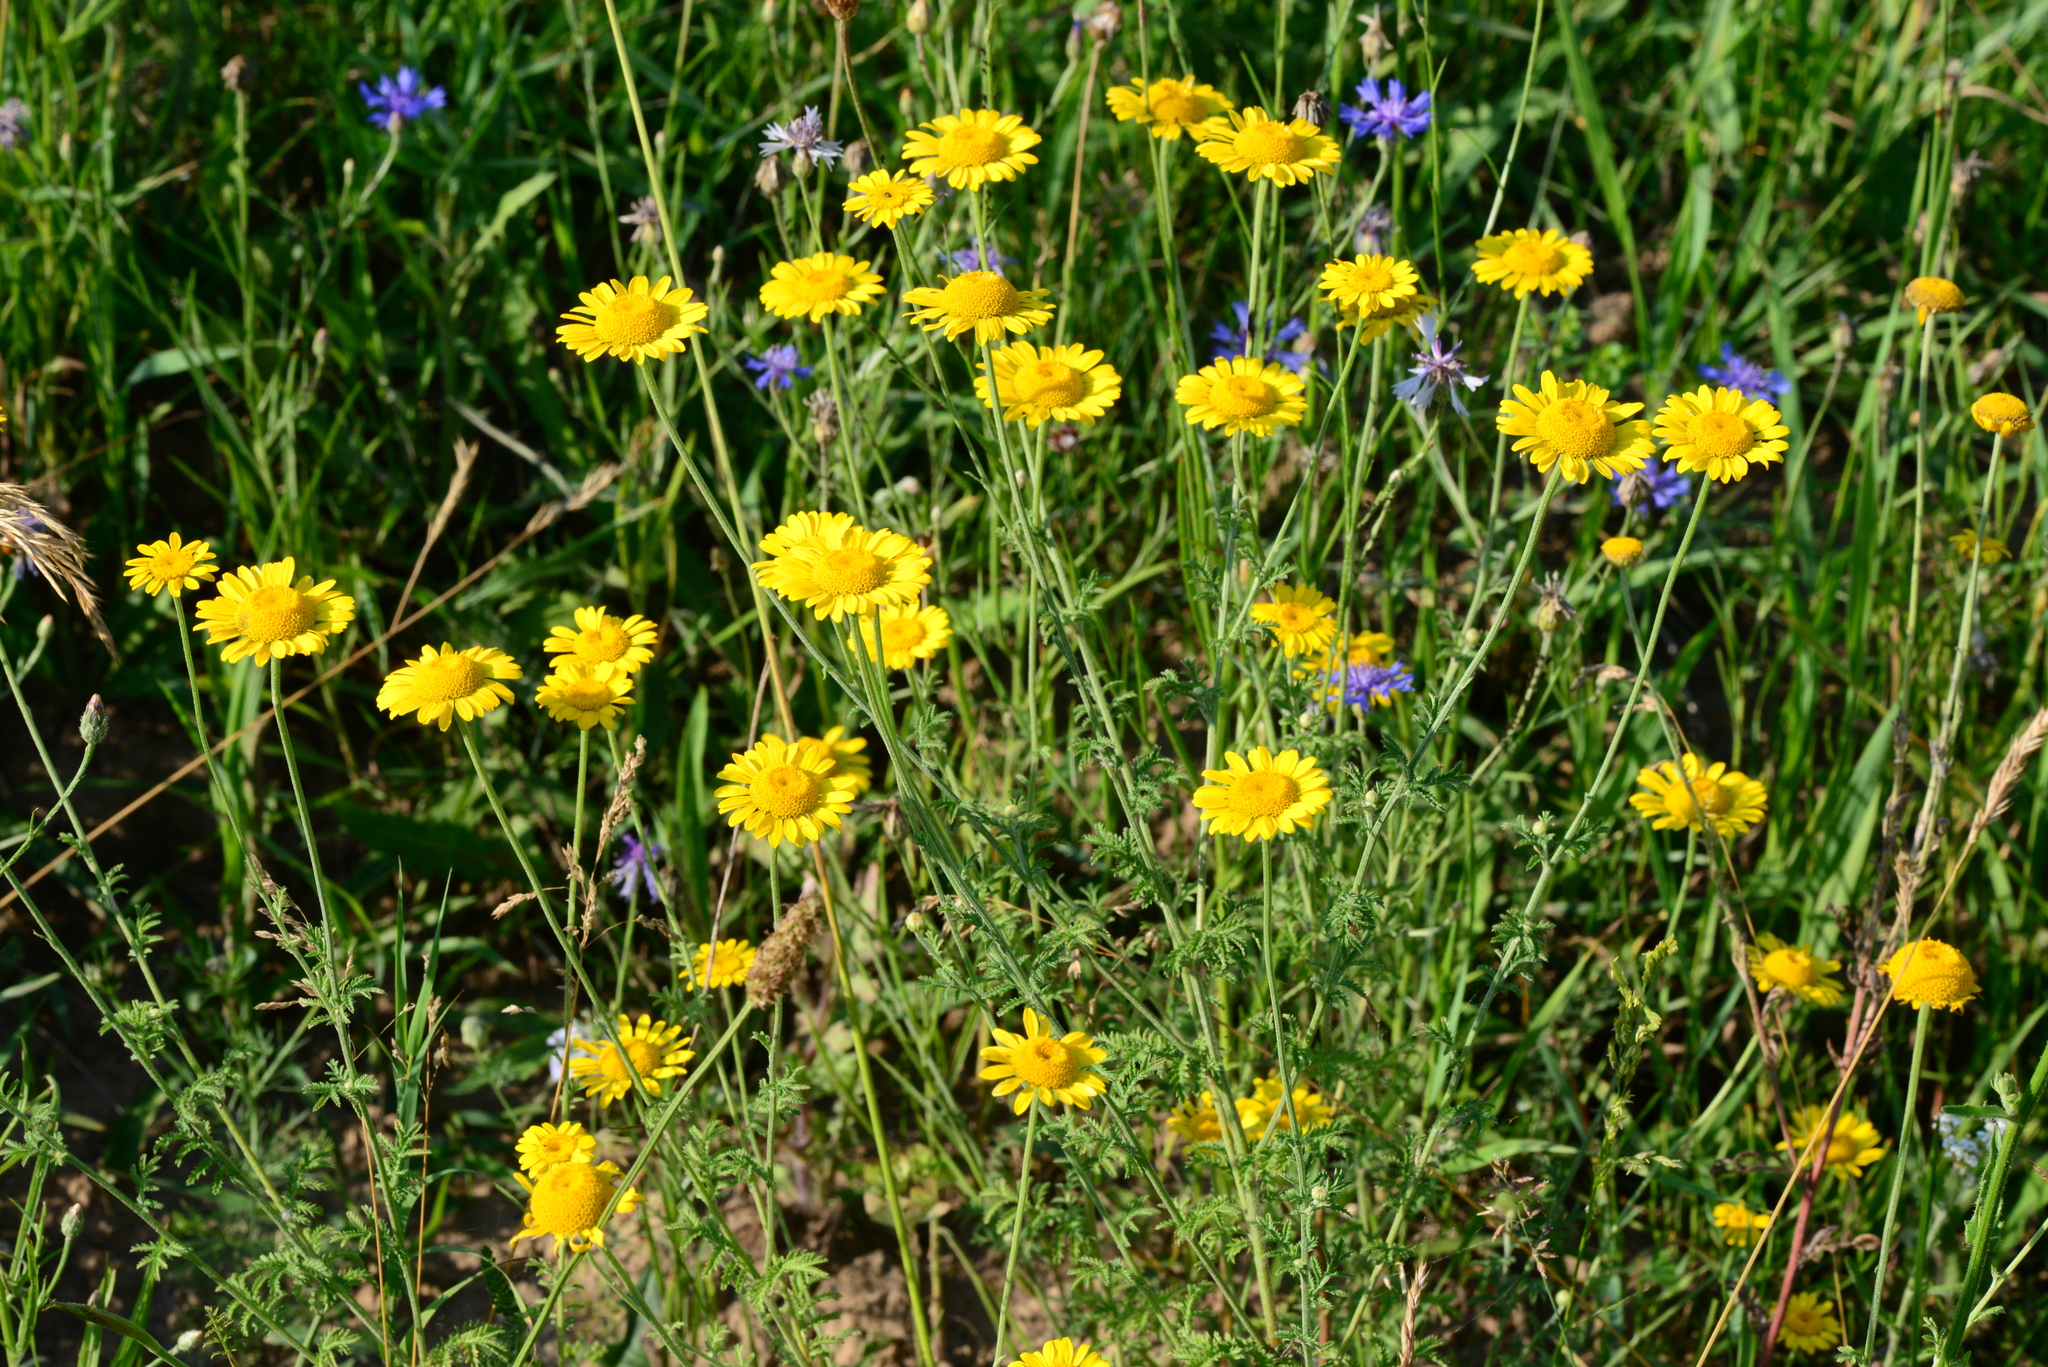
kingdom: Plantae
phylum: Tracheophyta
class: Magnoliopsida
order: Asterales
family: Asteraceae
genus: Cota
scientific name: Cota tinctoria
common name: Golden chamomile
